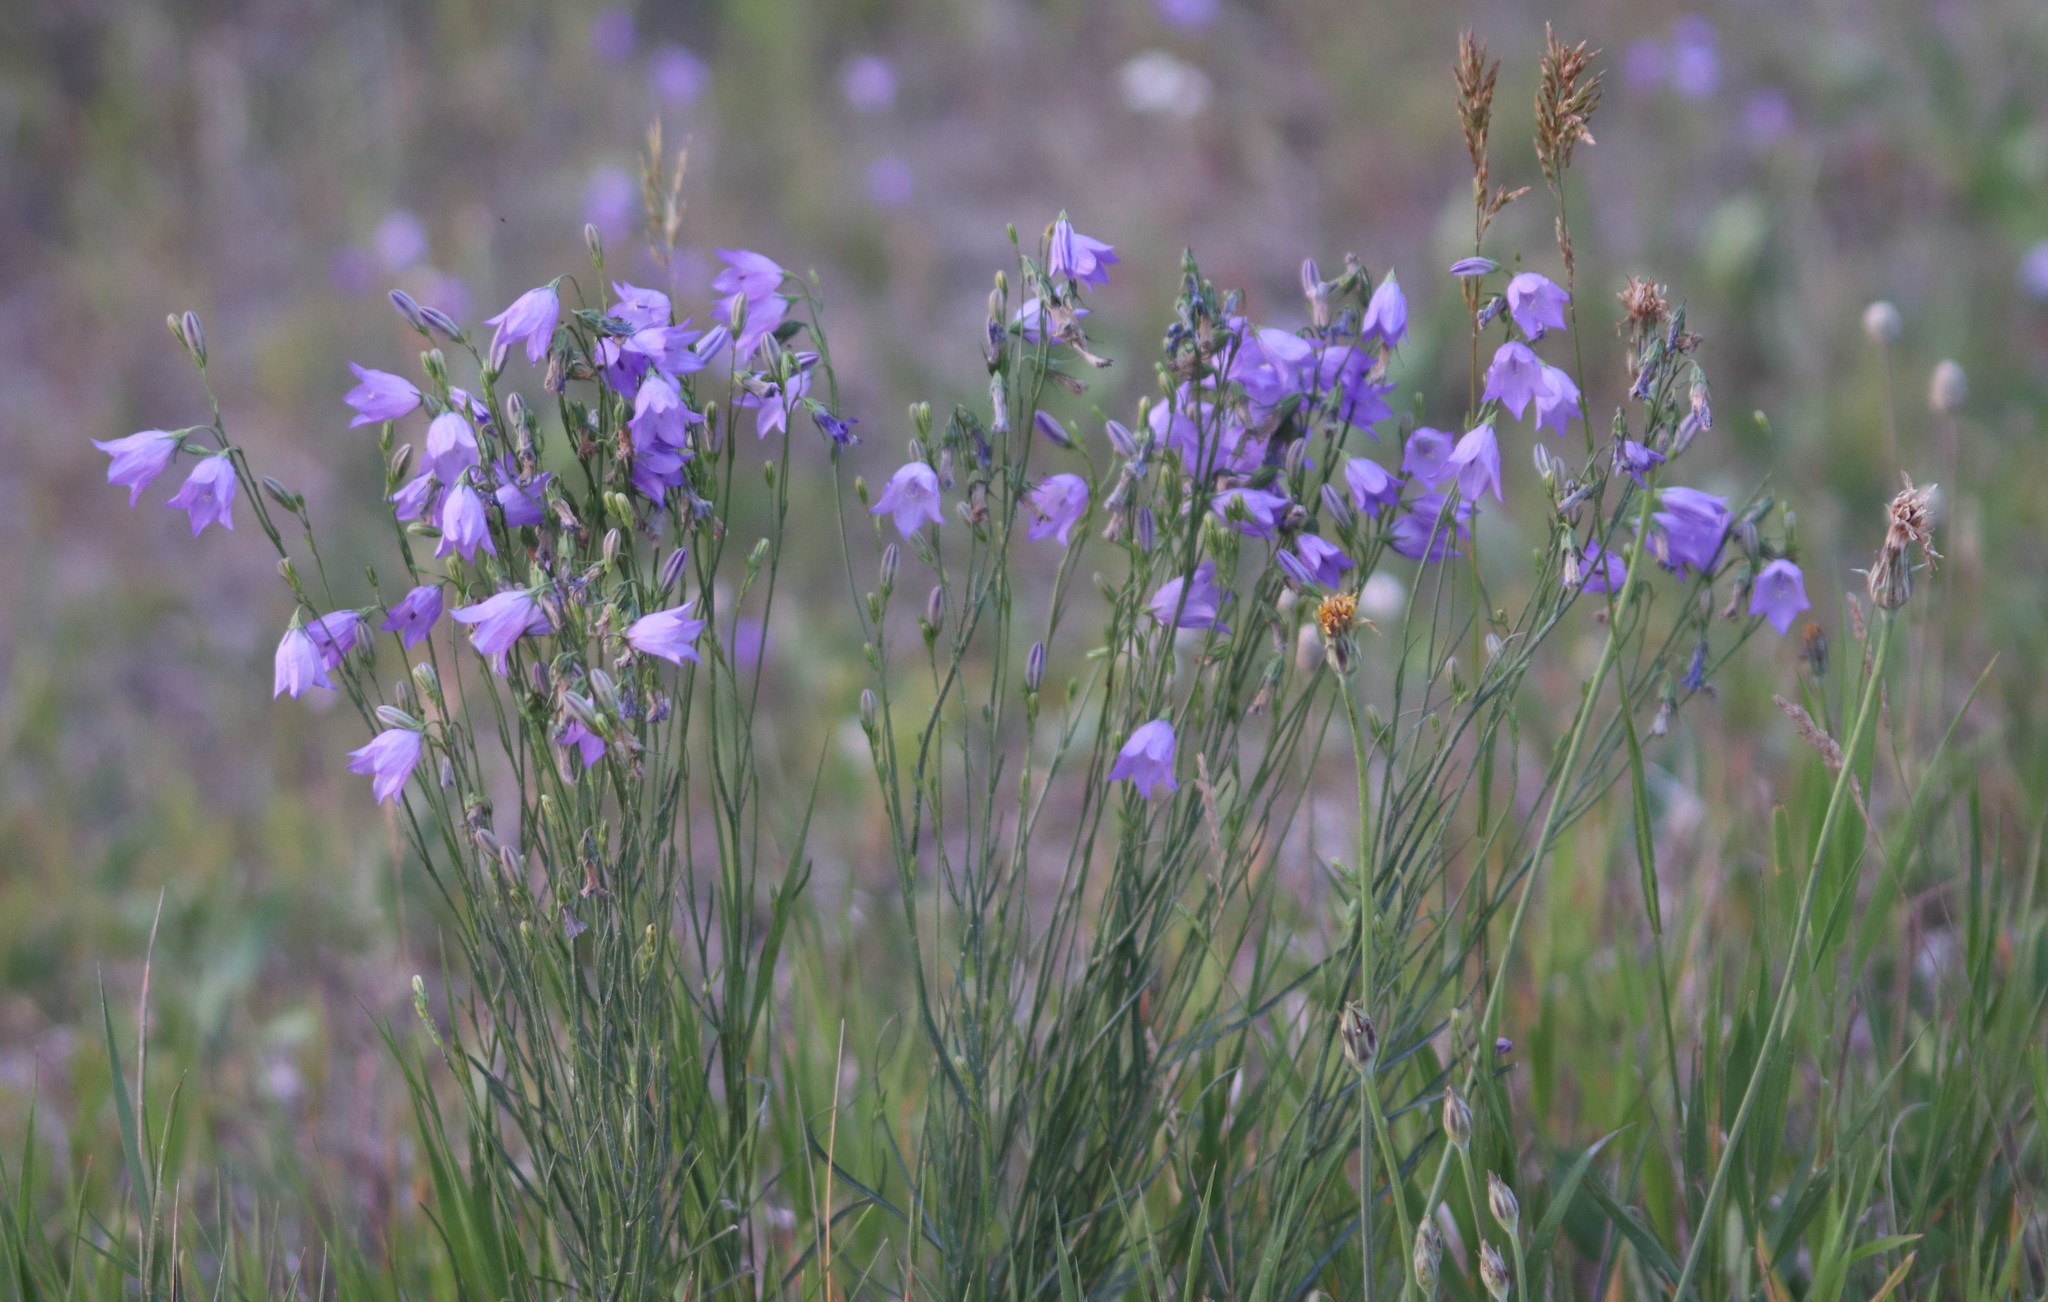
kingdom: Plantae
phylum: Tracheophyta
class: Magnoliopsida
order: Asterales
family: Campanulaceae
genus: Campanula
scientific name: Campanula petiolata
